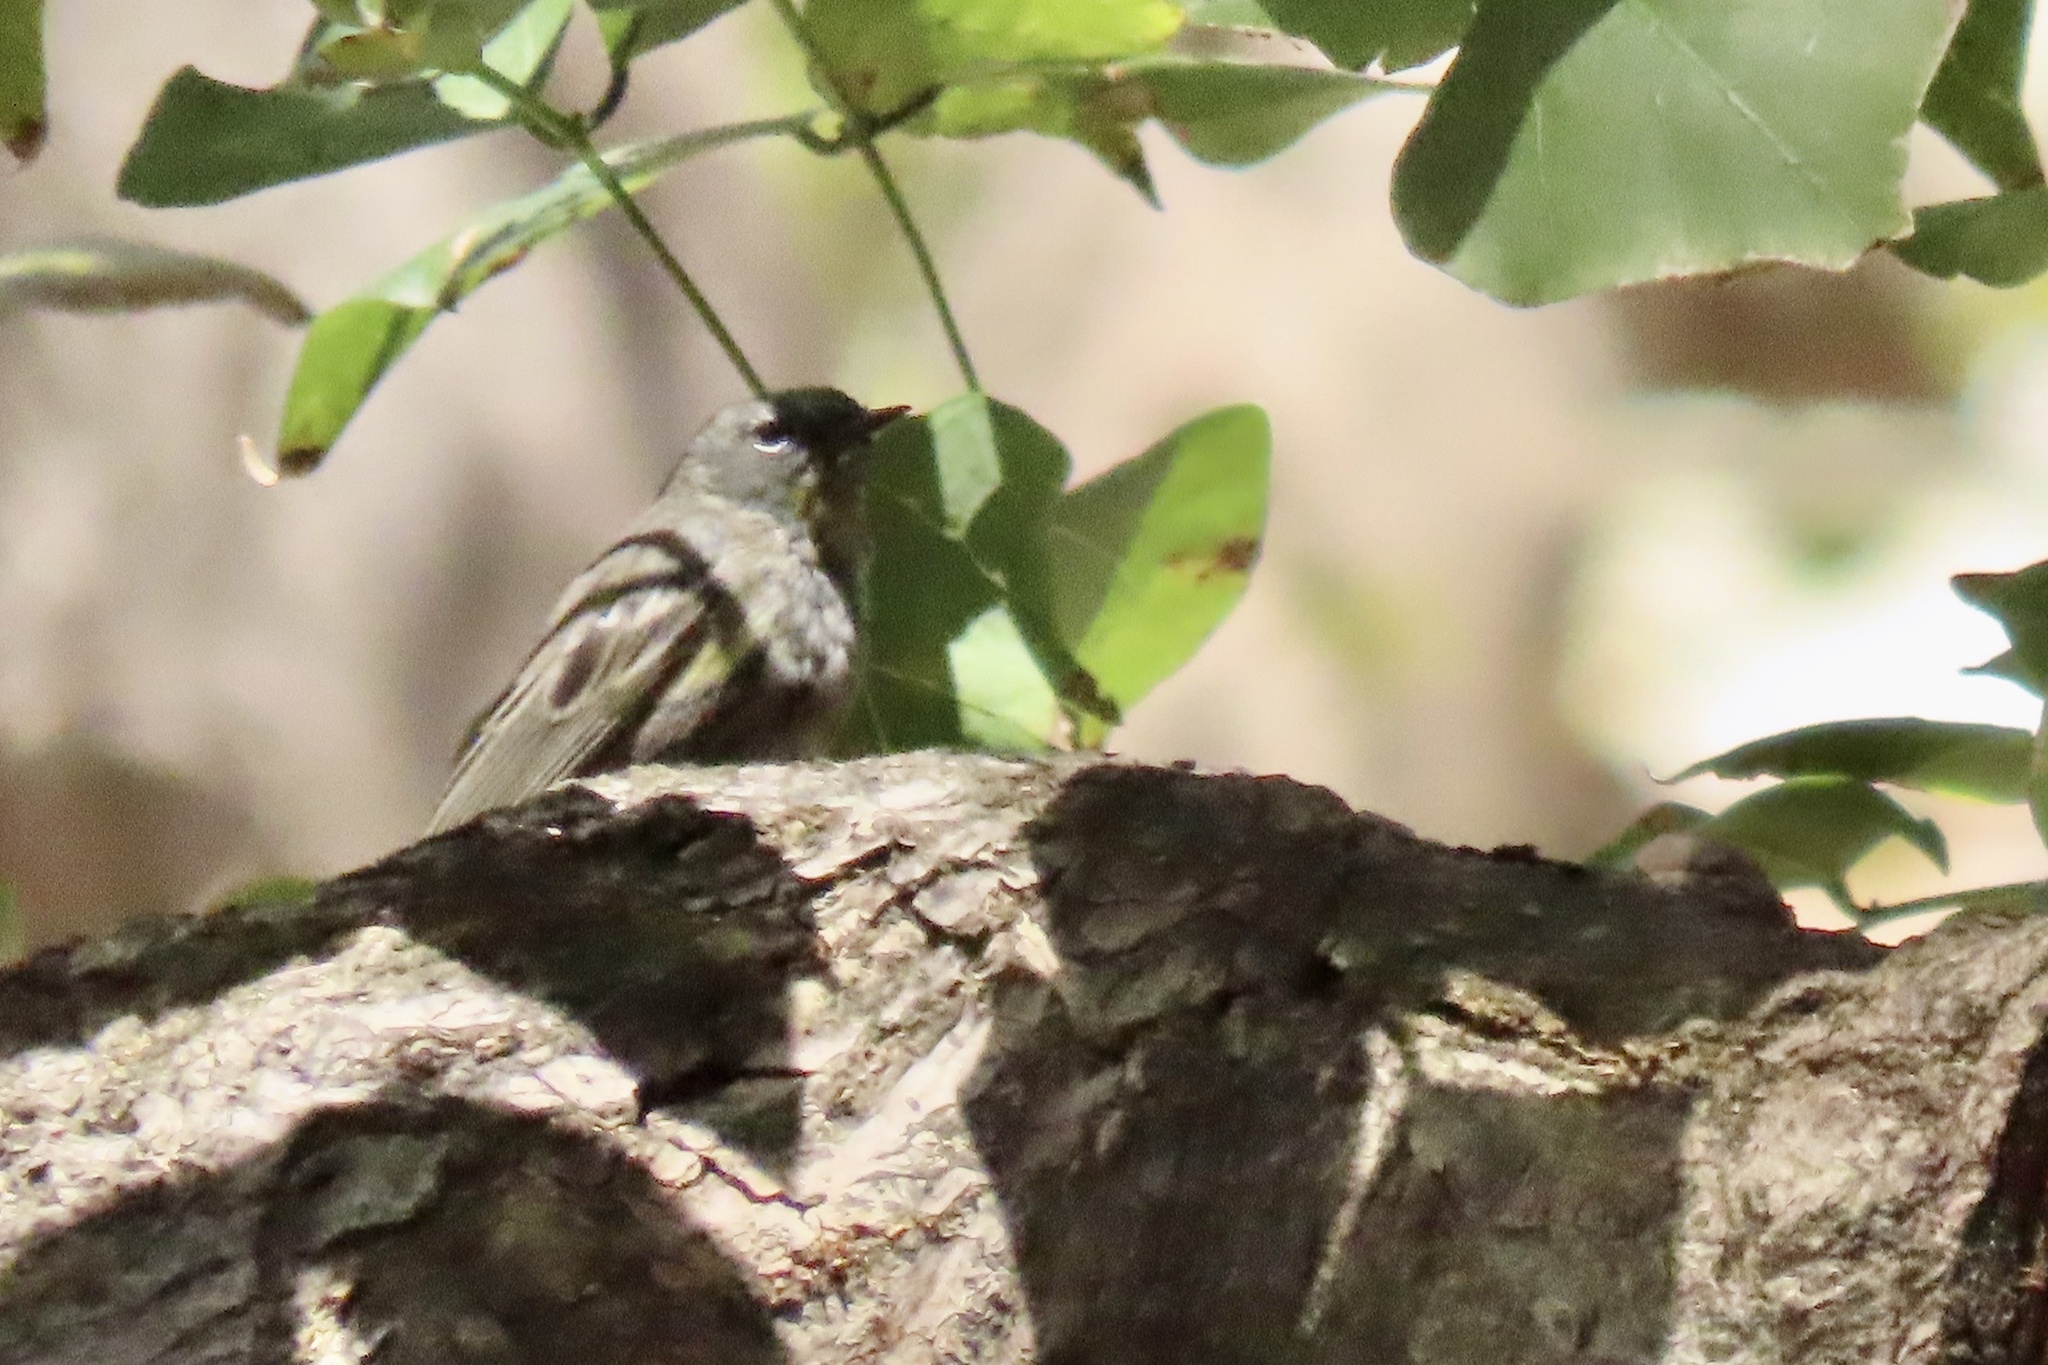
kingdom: Animalia
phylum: Chordata
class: Aves
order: Passeriformes
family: Parulidae
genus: Setophaga
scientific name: Setophaga coronata
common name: Myrtle warbler
